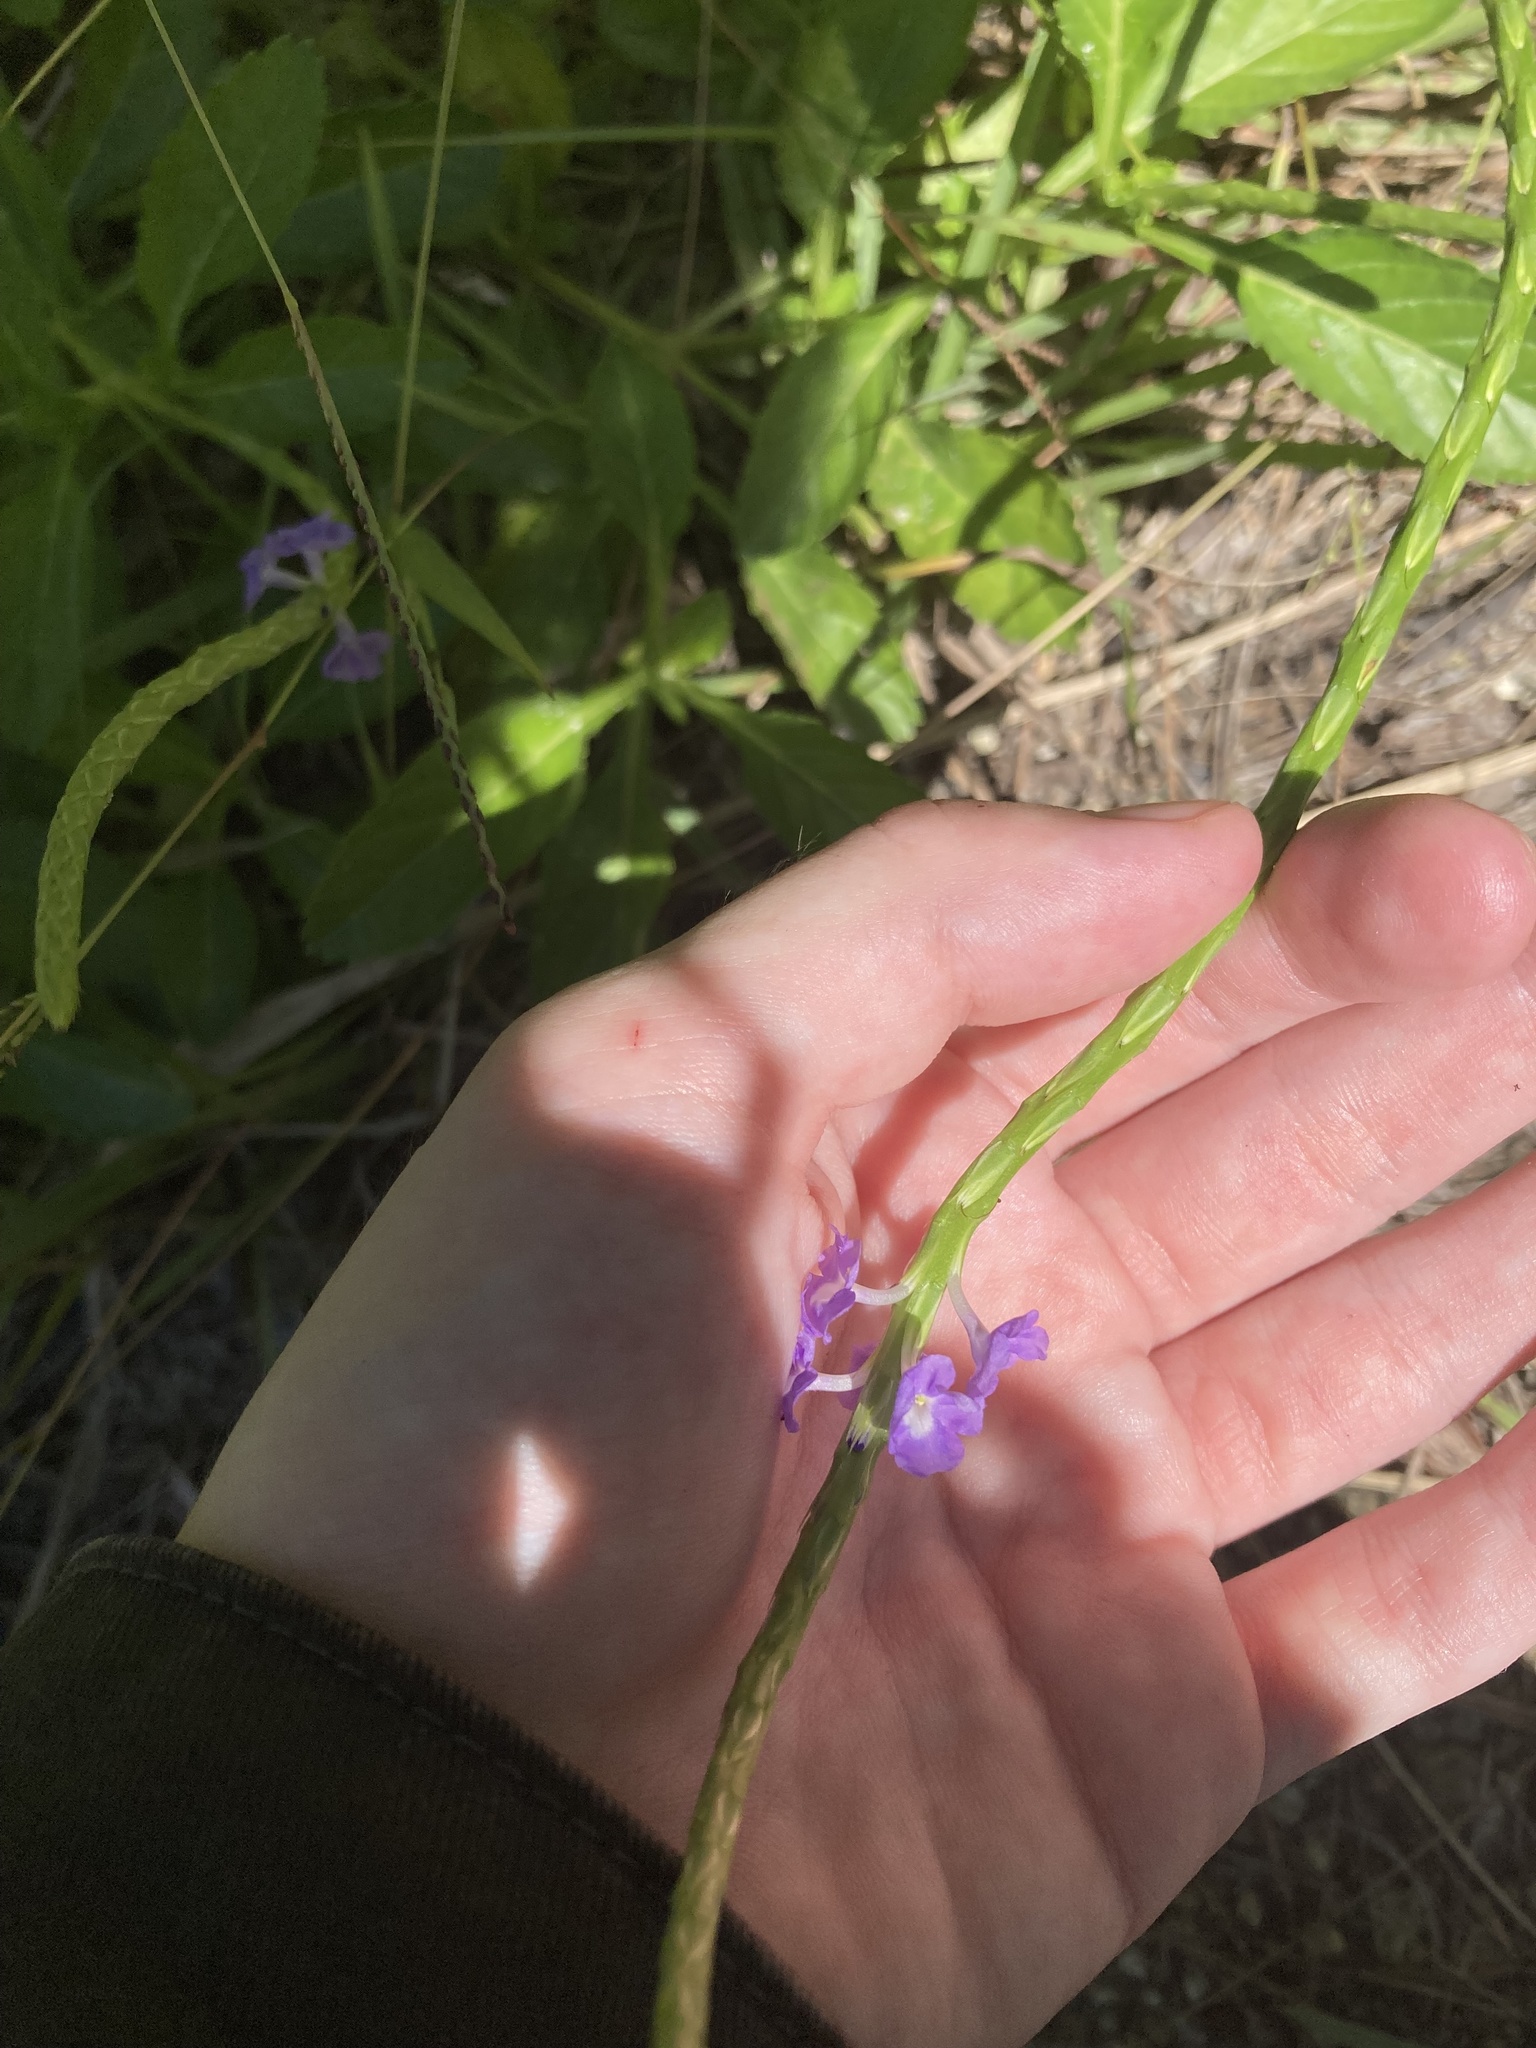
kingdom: Plantae
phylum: Tracheophyta
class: Magnoliopsida
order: Lamiales
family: Verbenaceae
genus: Stachytarpheta
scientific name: Stachytarpheta jamaicensis
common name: Light-blue snakeweed
